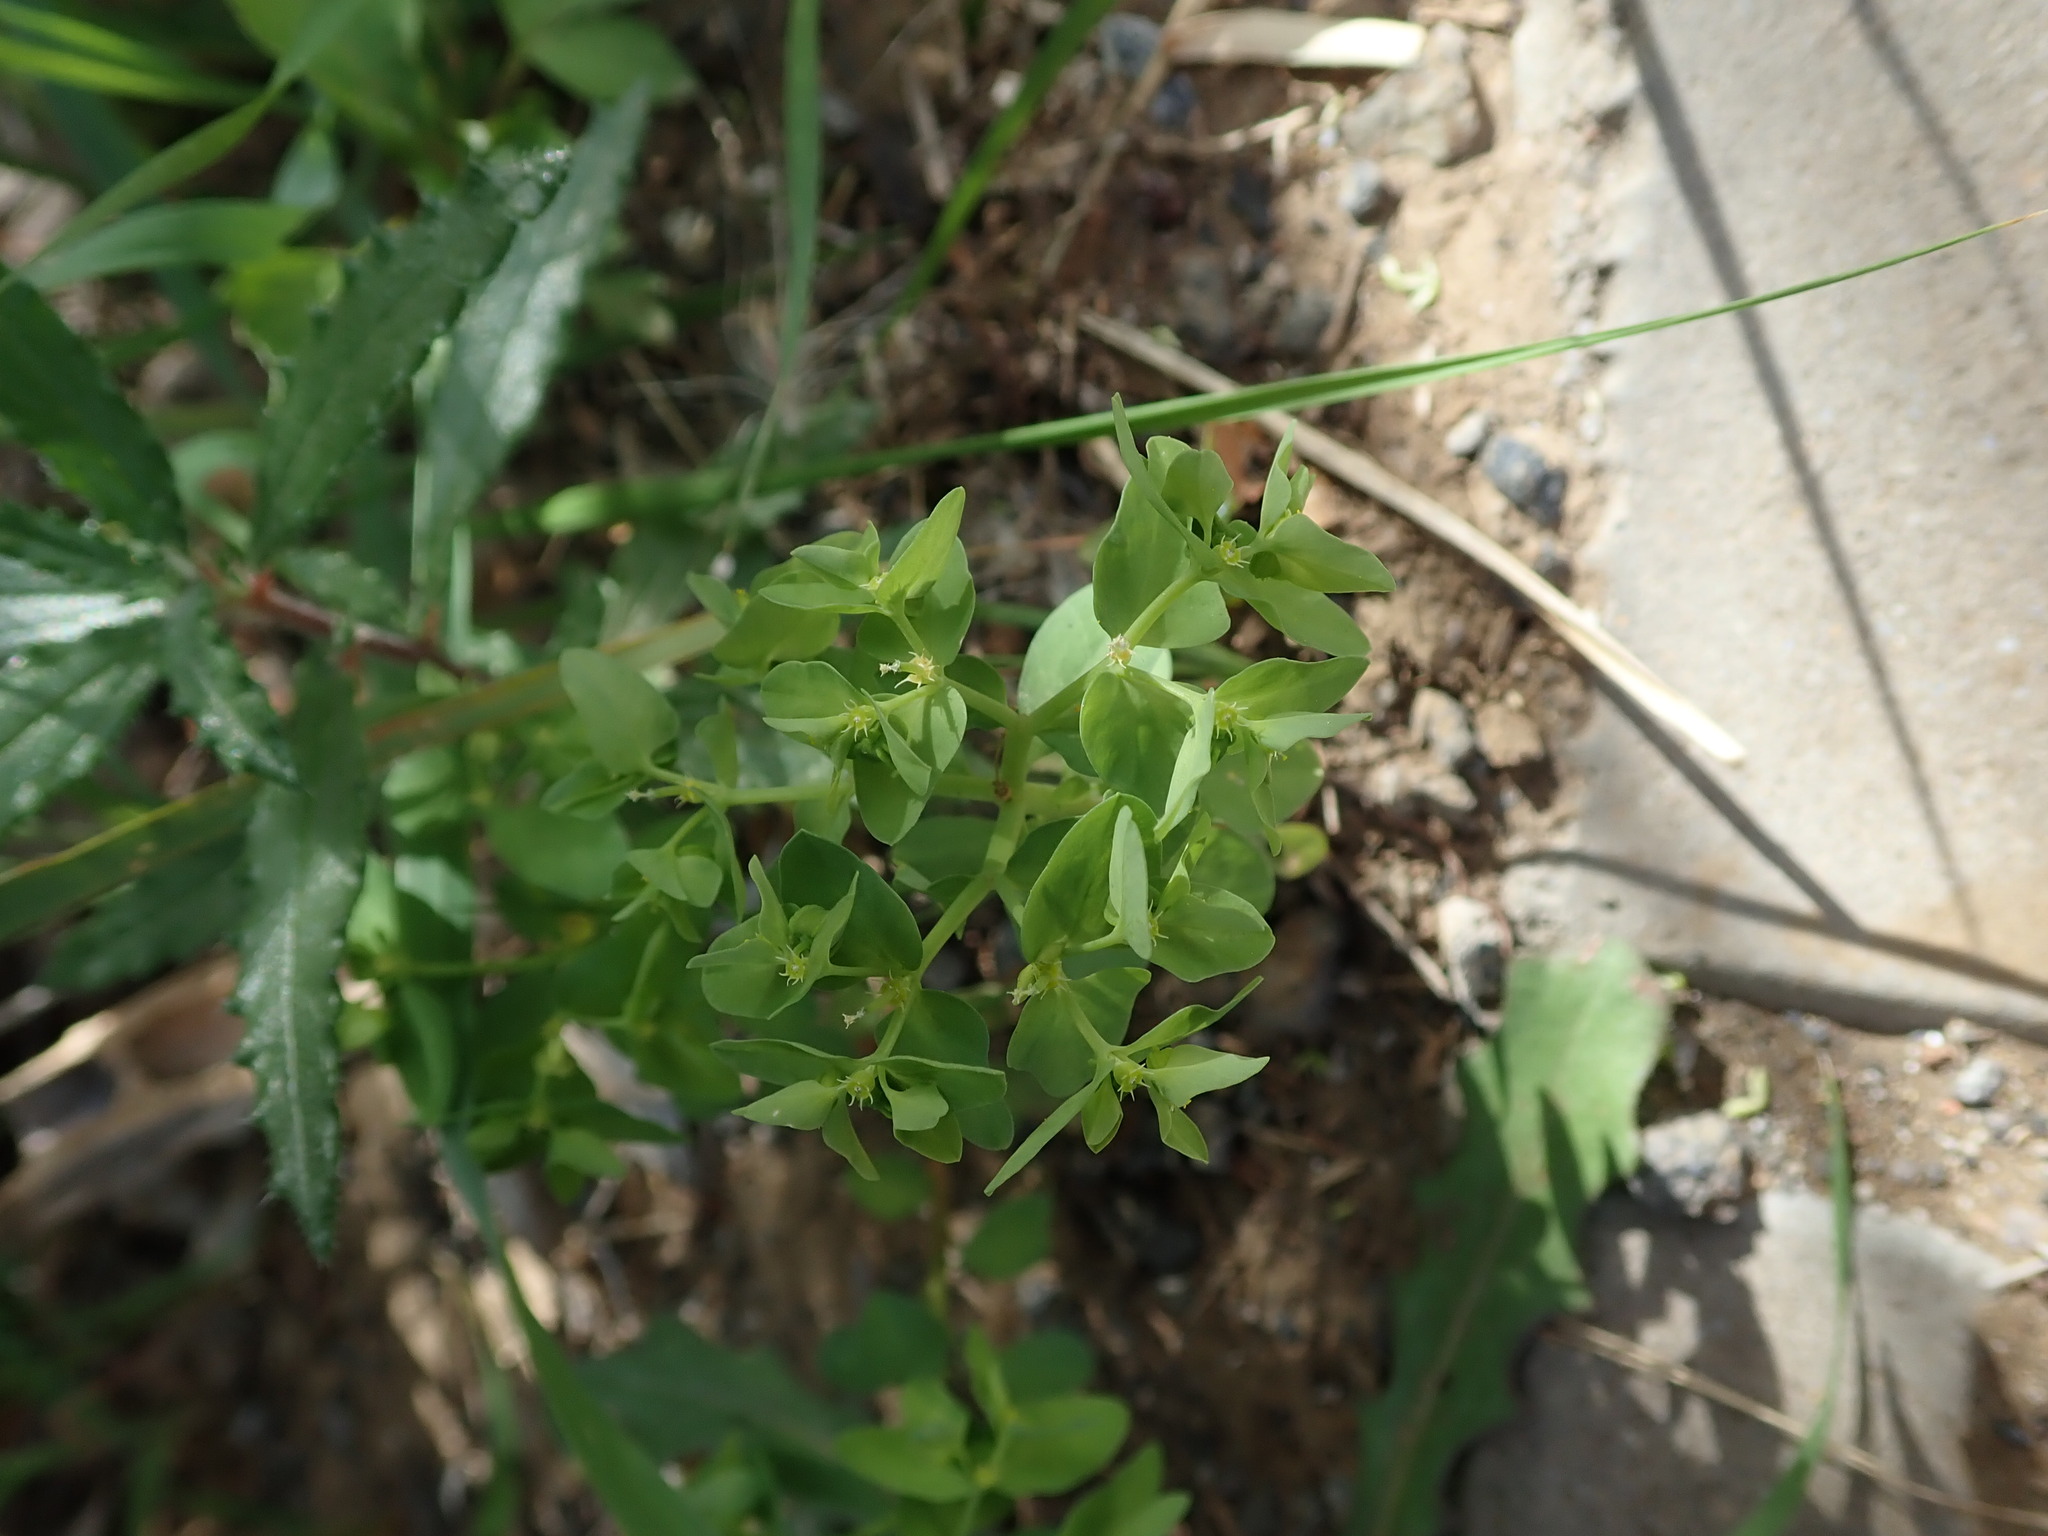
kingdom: Plantae
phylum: Tracheophyta
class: Magnoliopsida
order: Malpighiales
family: Euphorbiaceae
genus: Euphorbia
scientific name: Euphorbia peplus
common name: Petty spurge
